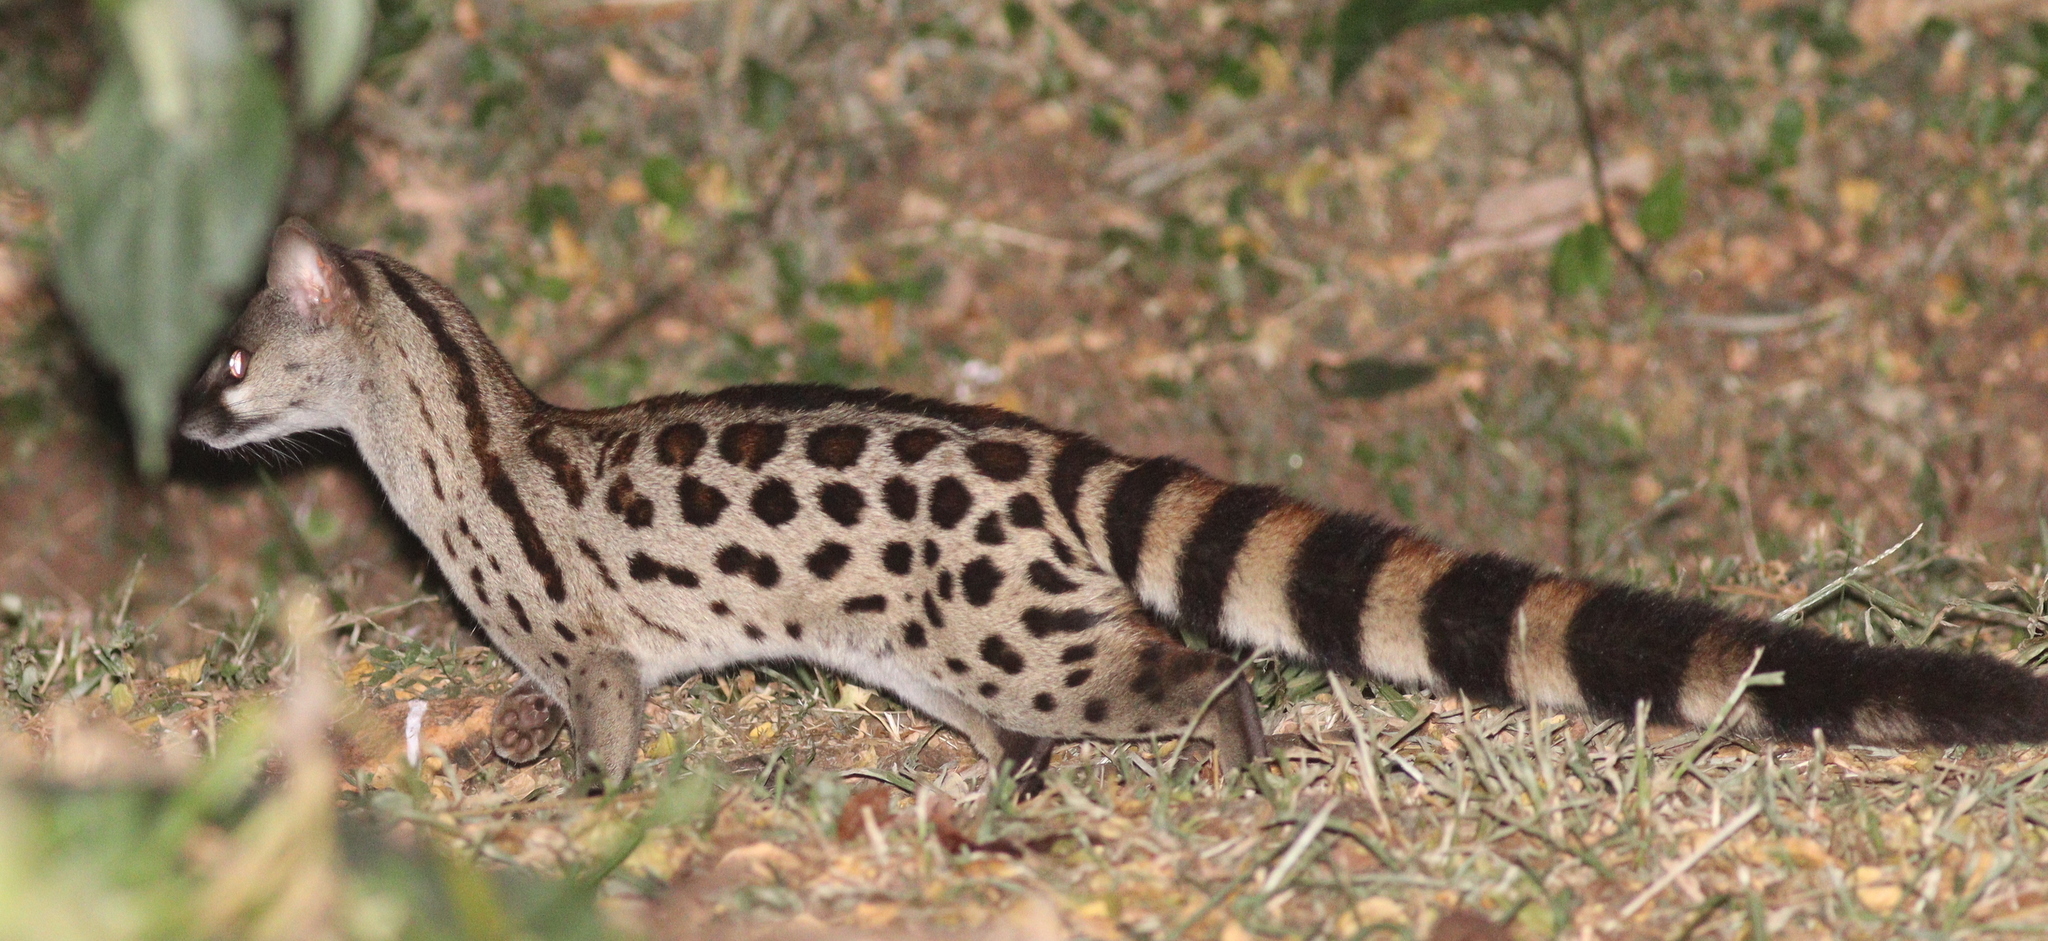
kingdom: Animalia
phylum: Chordata
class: Mammalia
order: Carnivora
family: Viverridae
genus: Genetta
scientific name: Genetta maculata
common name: Rusty-spotted genet
